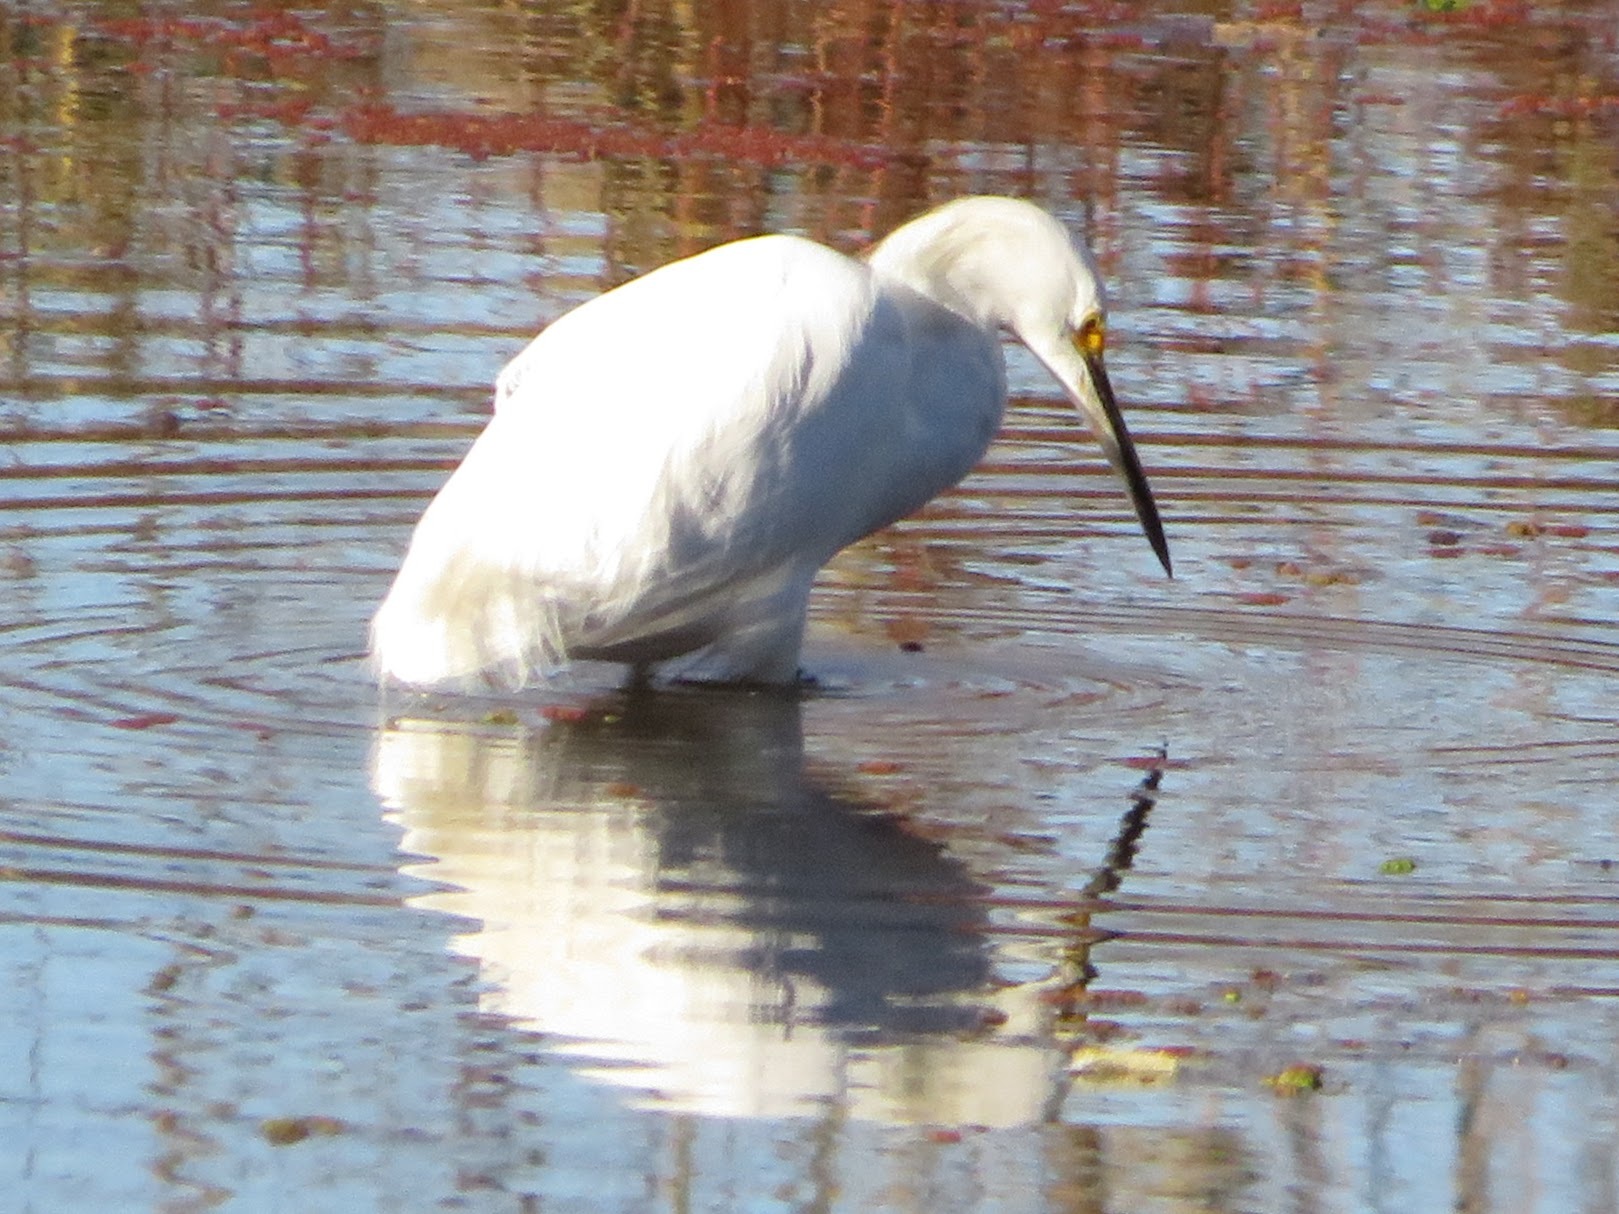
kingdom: Animalia
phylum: Chordata
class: Aves
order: Pelecaniformes
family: Ardeidae
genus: Egretta
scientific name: Egretta thula
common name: Snowy egret
